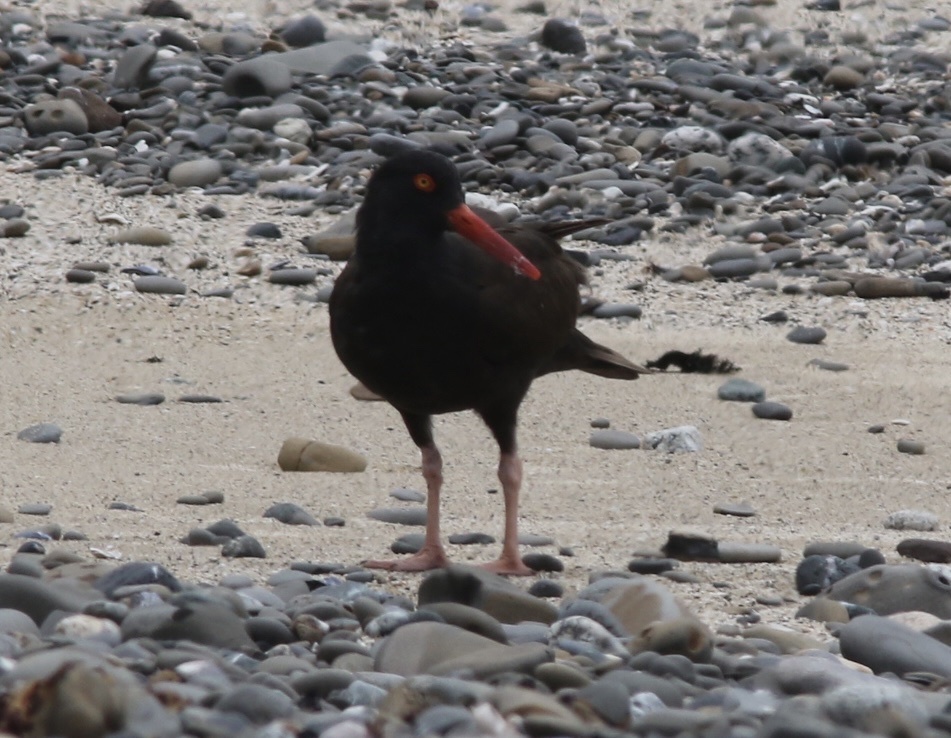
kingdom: Animalia
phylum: Chordata
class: Aves
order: Charadriiformes
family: Haematopodidae
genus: Haematopus
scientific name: Haematopus bachmani
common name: Black oystercatcher
